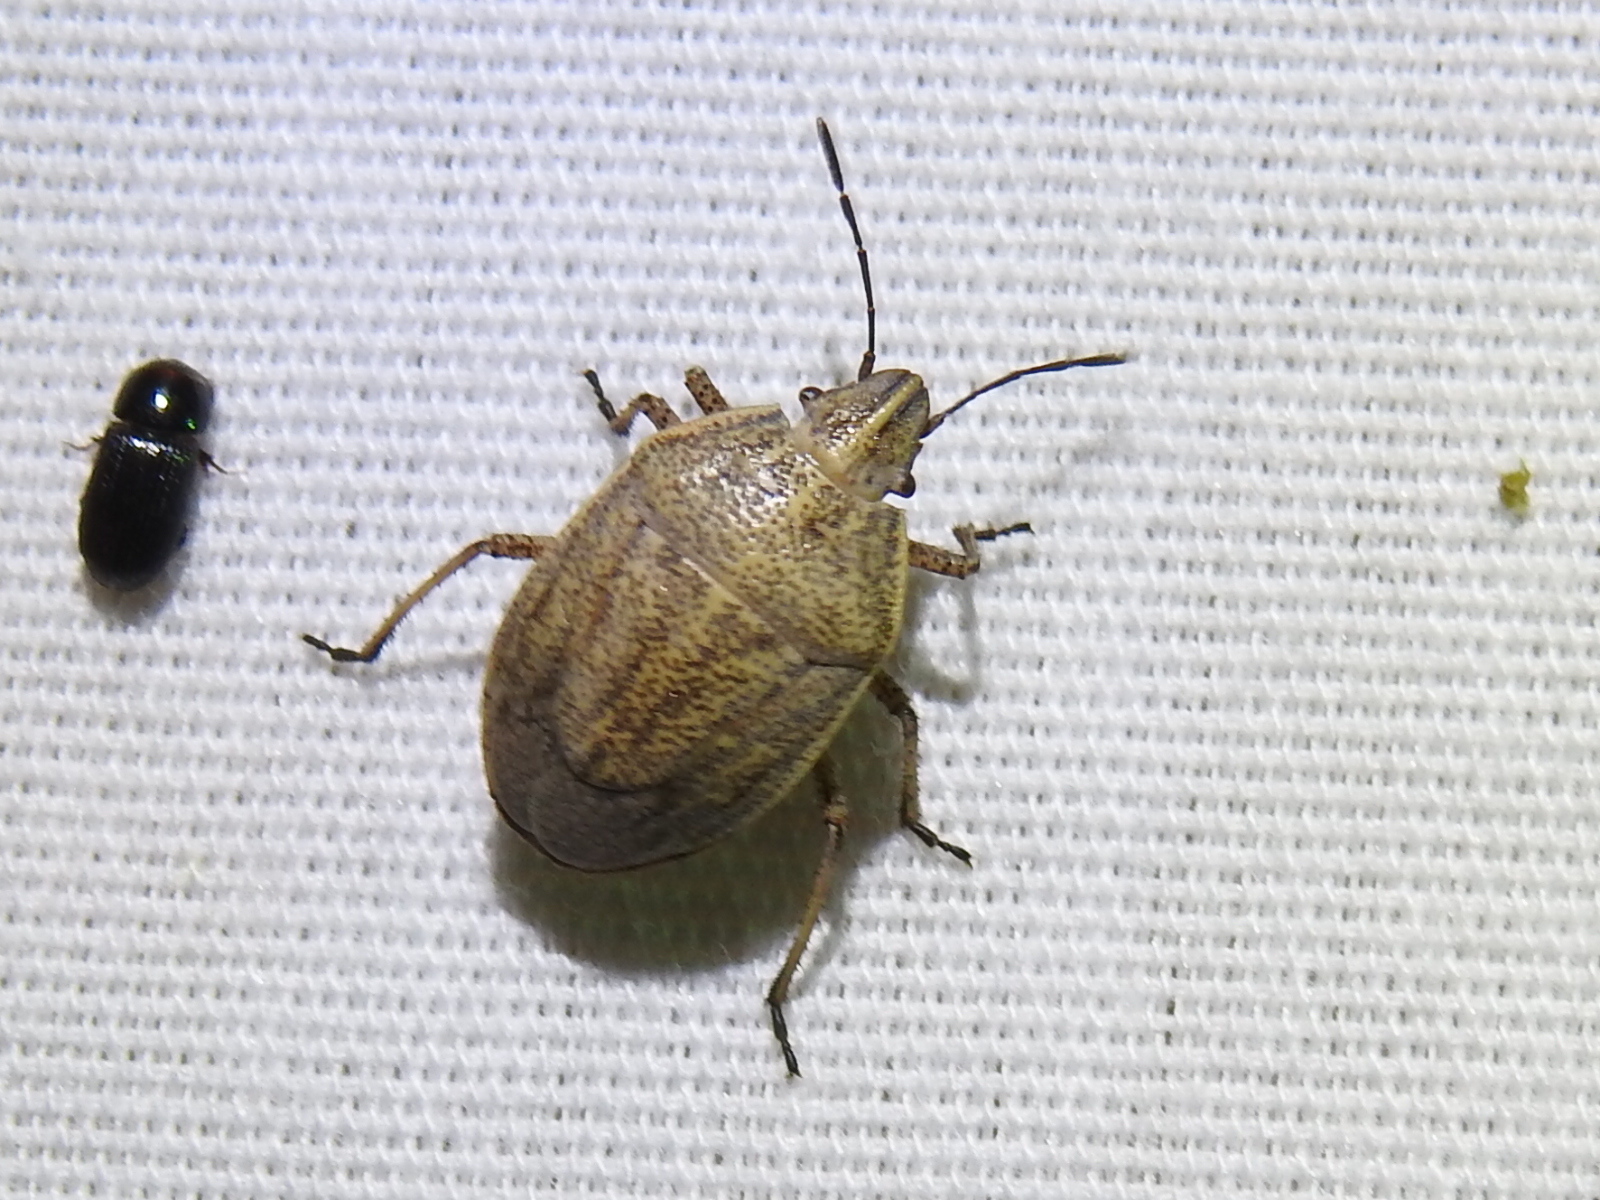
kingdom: Animalia
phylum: Arthropoda
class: Insecta
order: Hemiptera
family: Pentatomidae
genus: Coenus
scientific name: Coenus delius
